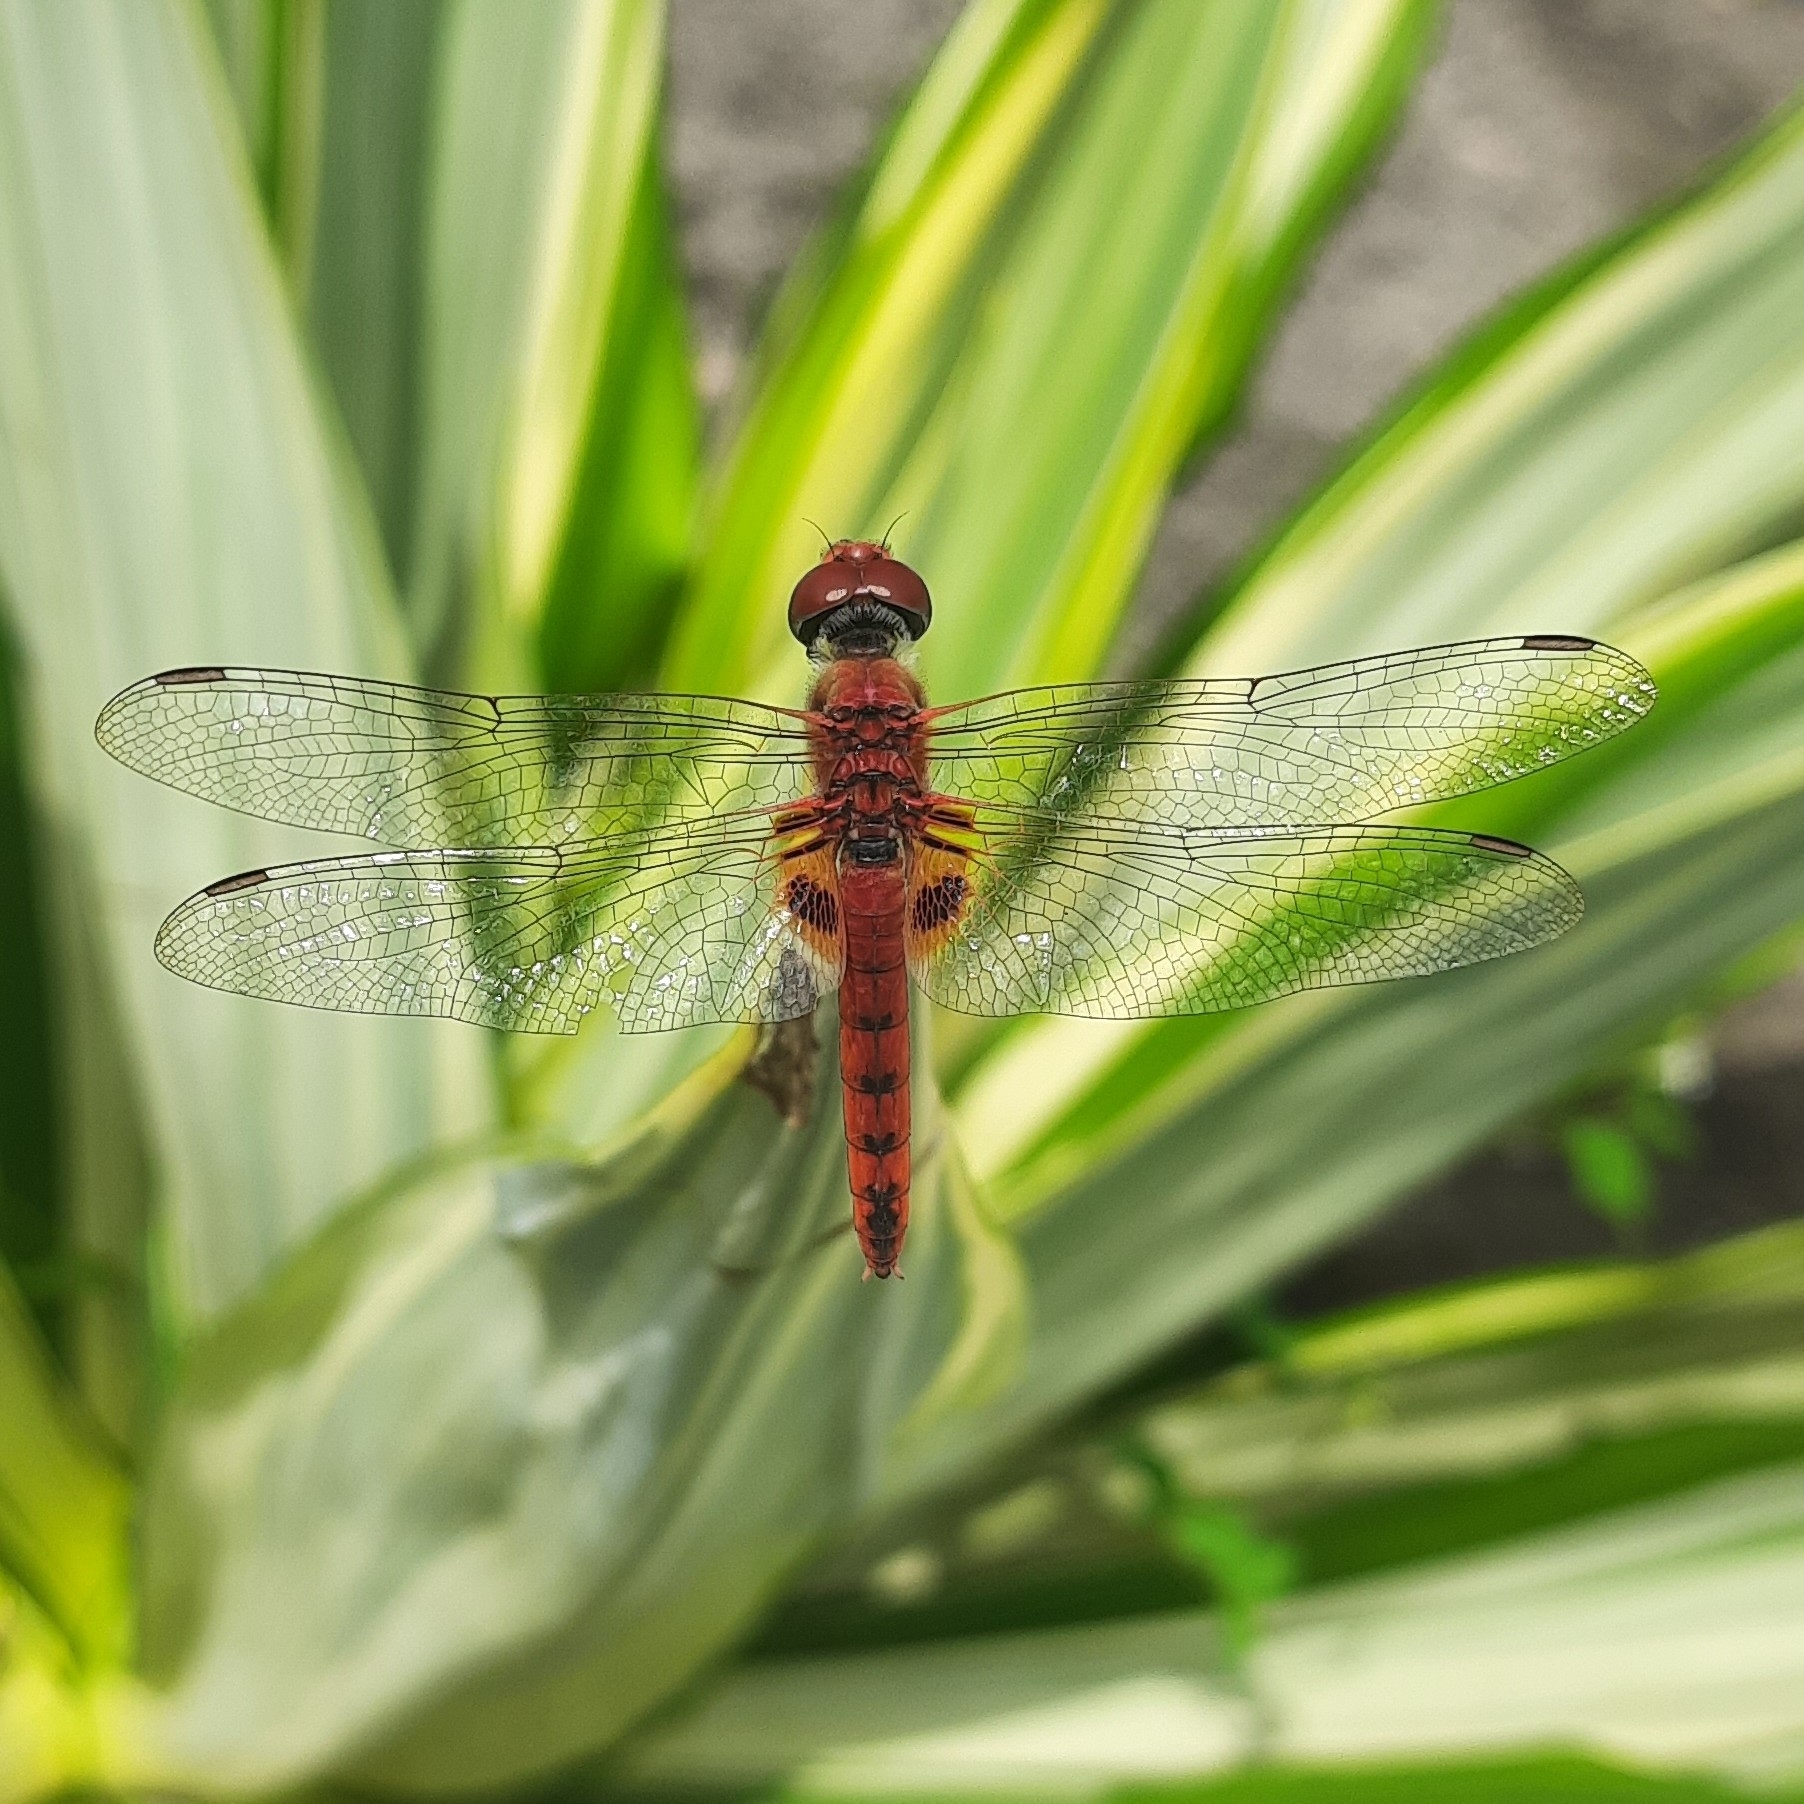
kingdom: Animalia
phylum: Arthropoda
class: Insecta
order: Odonata
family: Libellulidae
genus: Urothemis
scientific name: Urothemis signata
